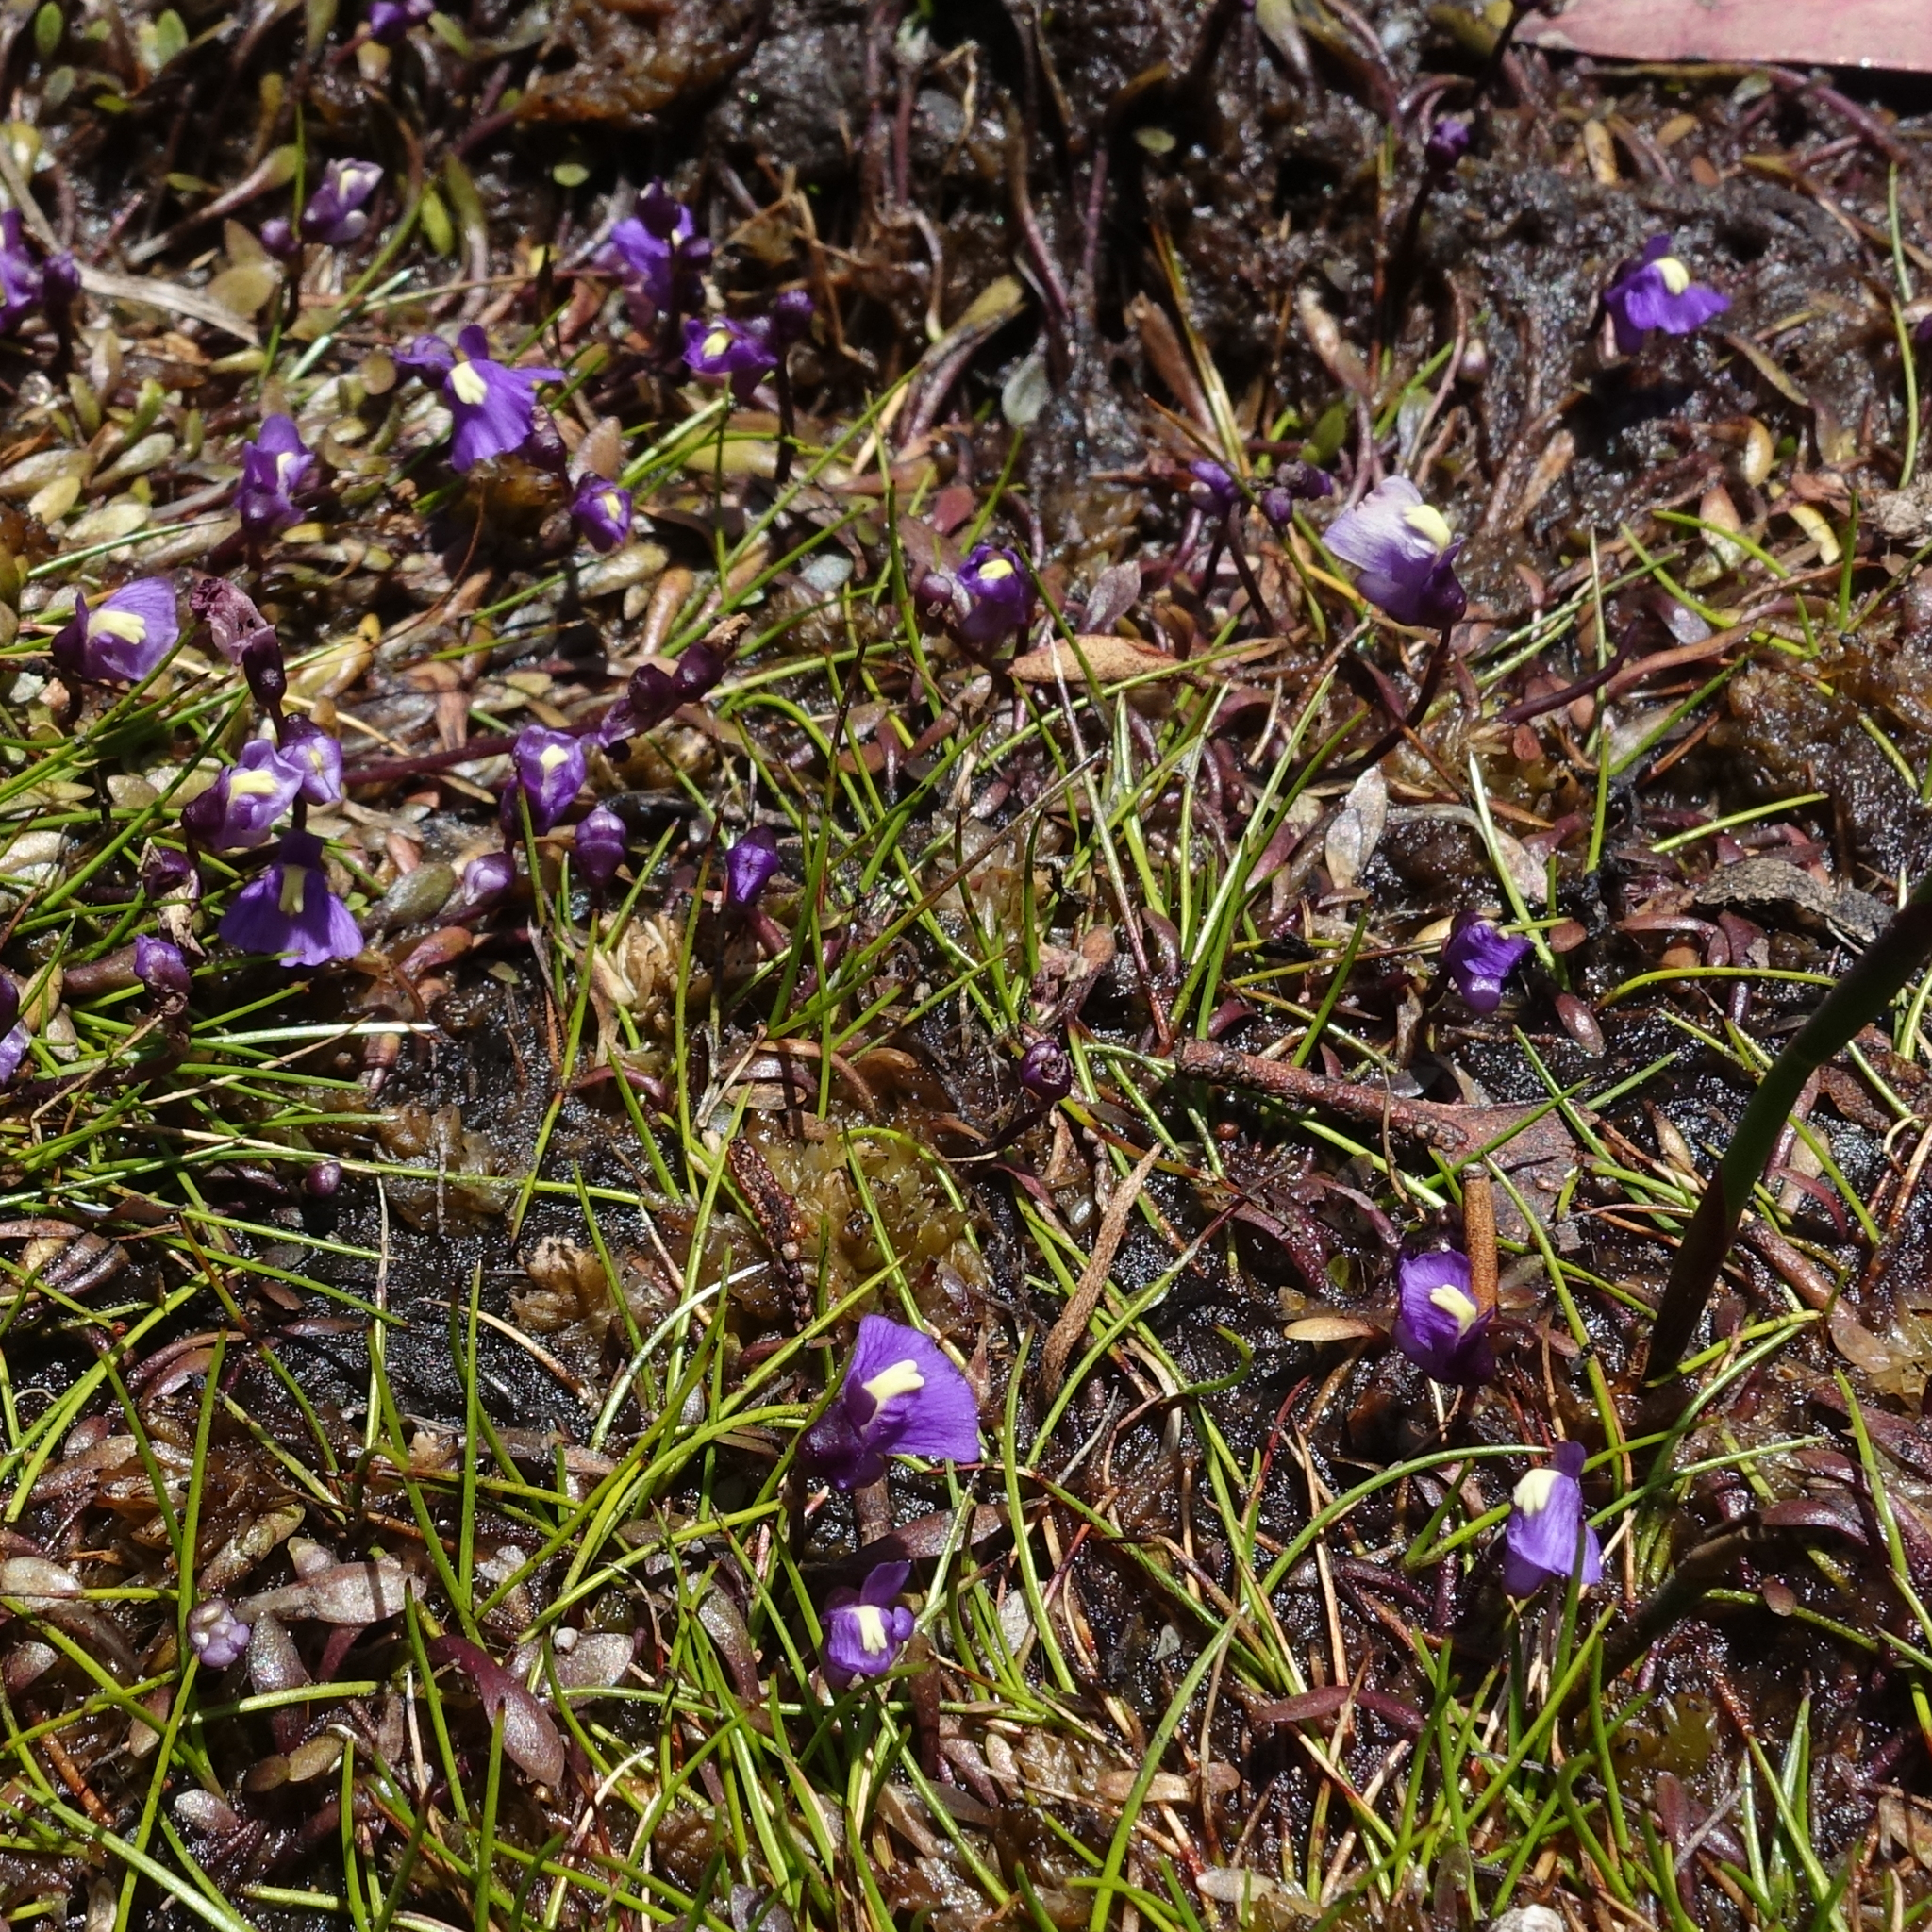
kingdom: Plantae
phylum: Tracheophyta
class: Magnoliopsida
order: Lamiales
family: Lentibulariaceae
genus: Utricularia
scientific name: Utricularia dichotoma
